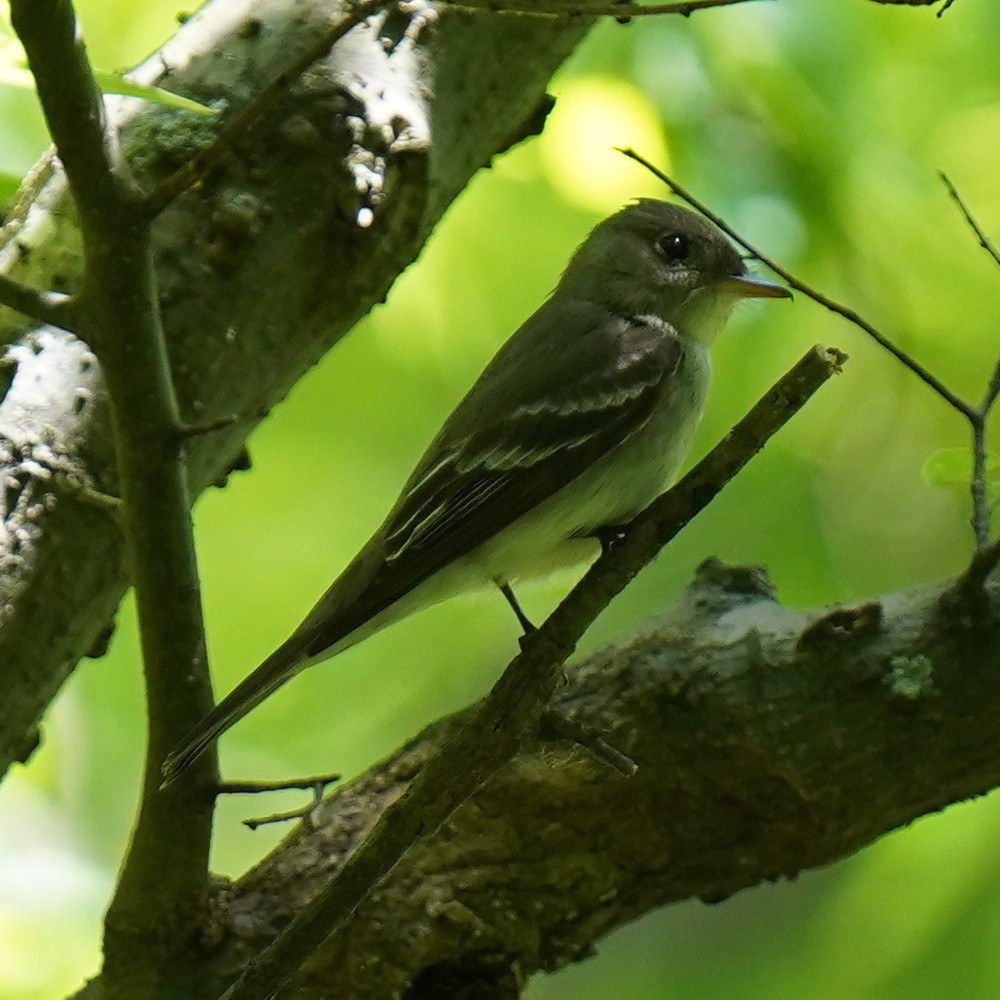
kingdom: Animalia
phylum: Chordata
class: Aves
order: Passeriformes
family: Tyrannidae
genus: Contopus
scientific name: Contopus virens
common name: Eastern wood-pewee
